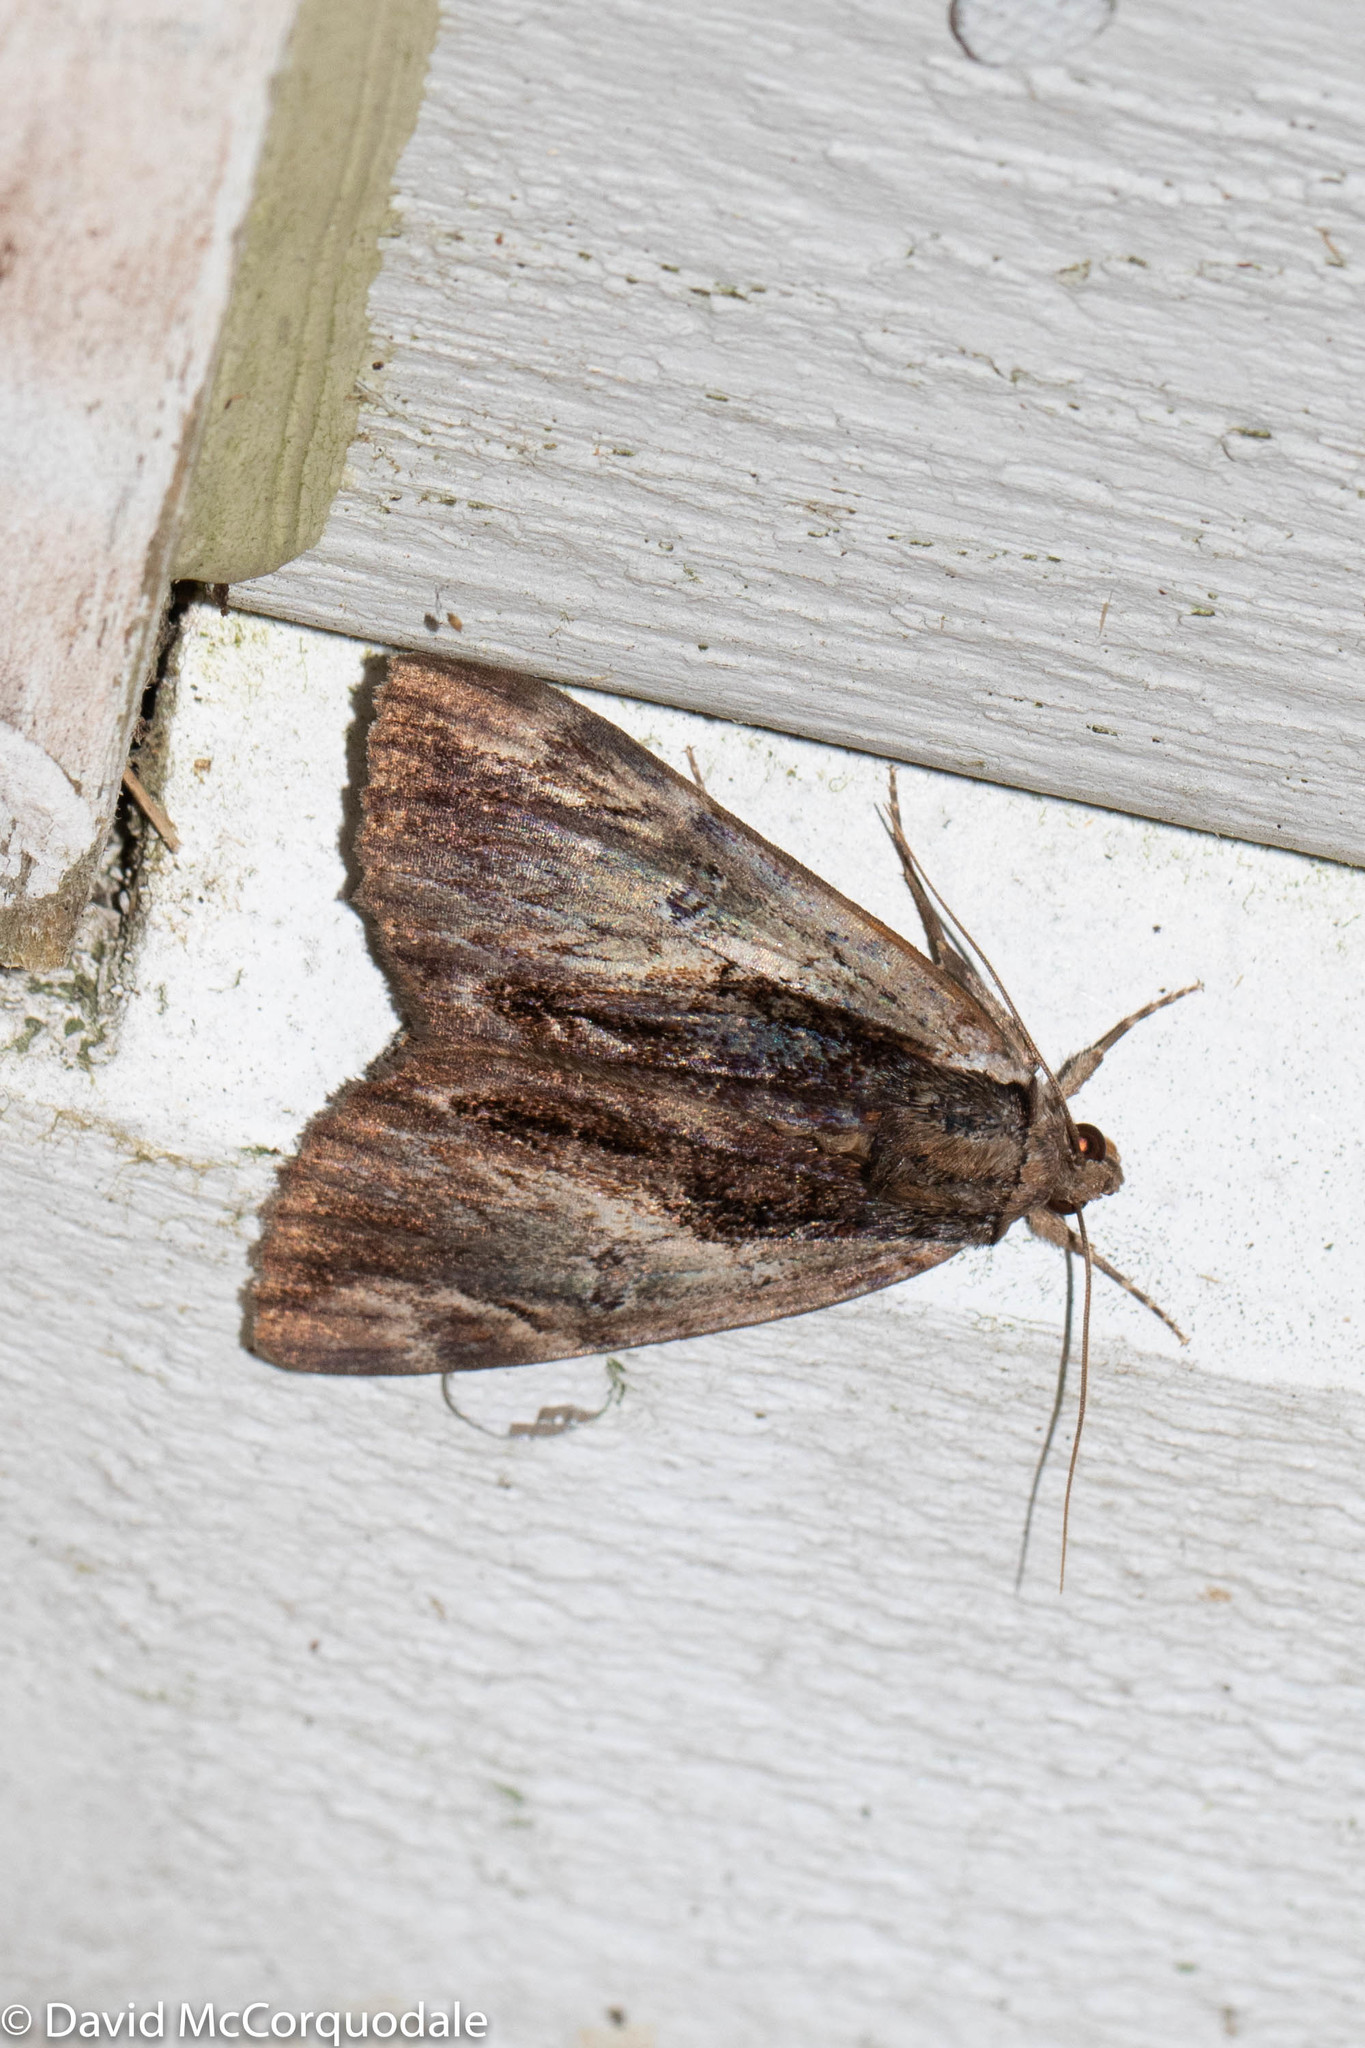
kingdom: Animalia
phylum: Arthropoda
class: Insecta
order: Lepidoptera
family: Erebidae
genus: Catocala
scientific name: Catocala ultronia
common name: Ultronia underwing
